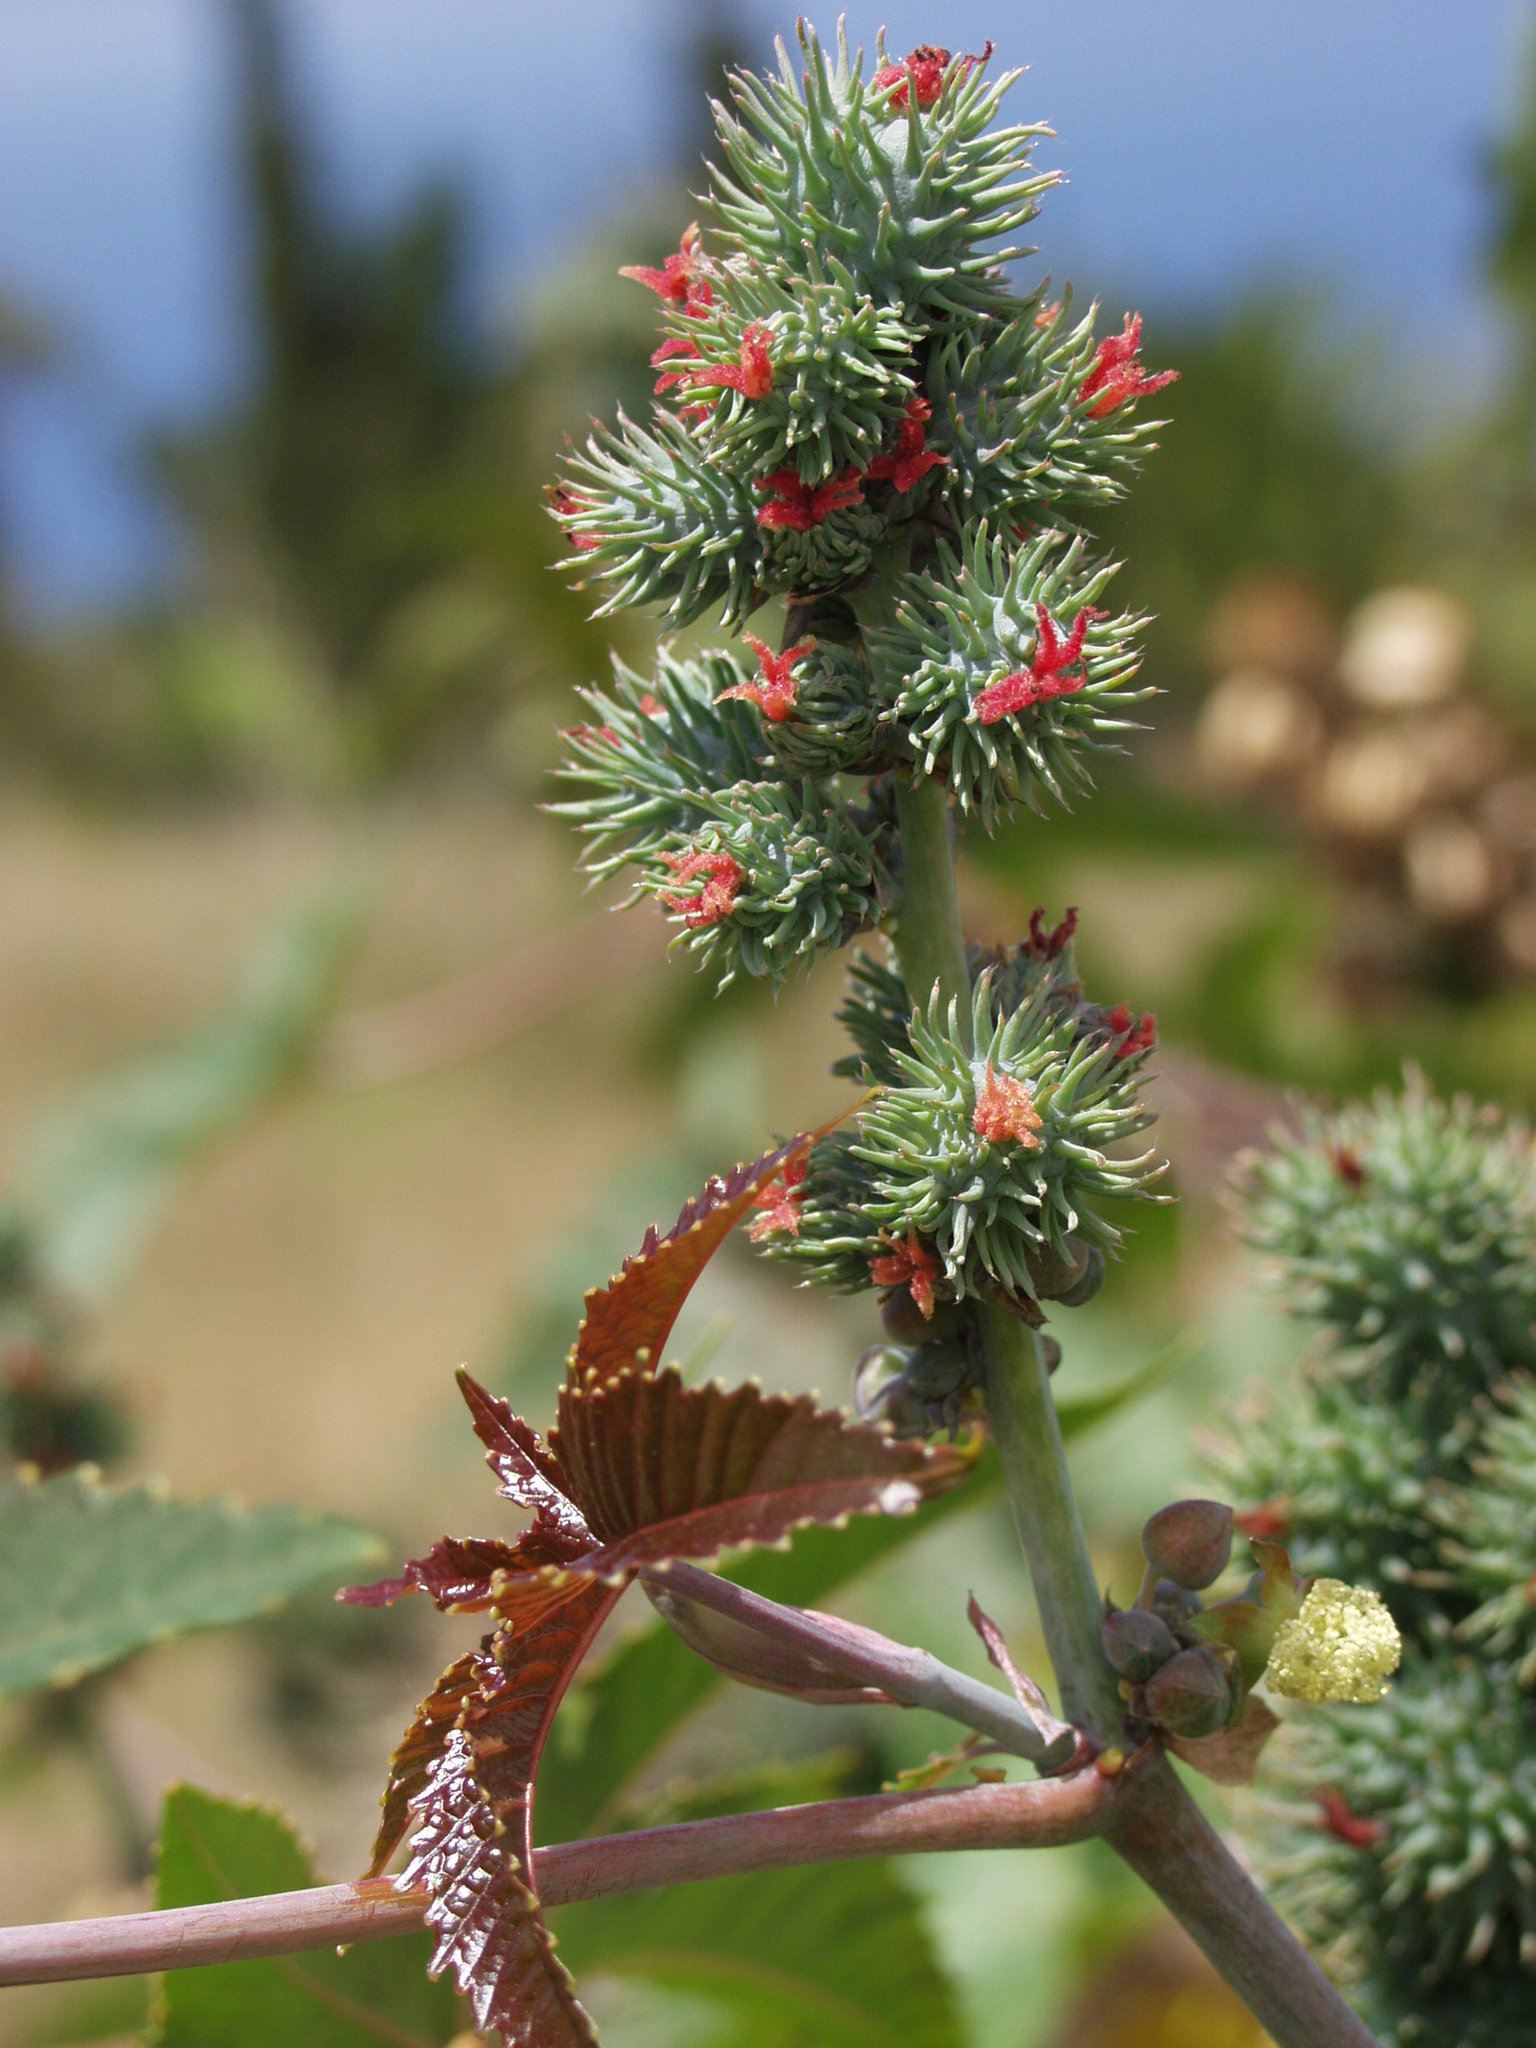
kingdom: Plantae
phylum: Tracheophyta
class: Magnoliopsida
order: Malpighiales
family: Euphorbiaceae
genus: Ricinus
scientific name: Ricinus communis
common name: Castor-oil-plant
